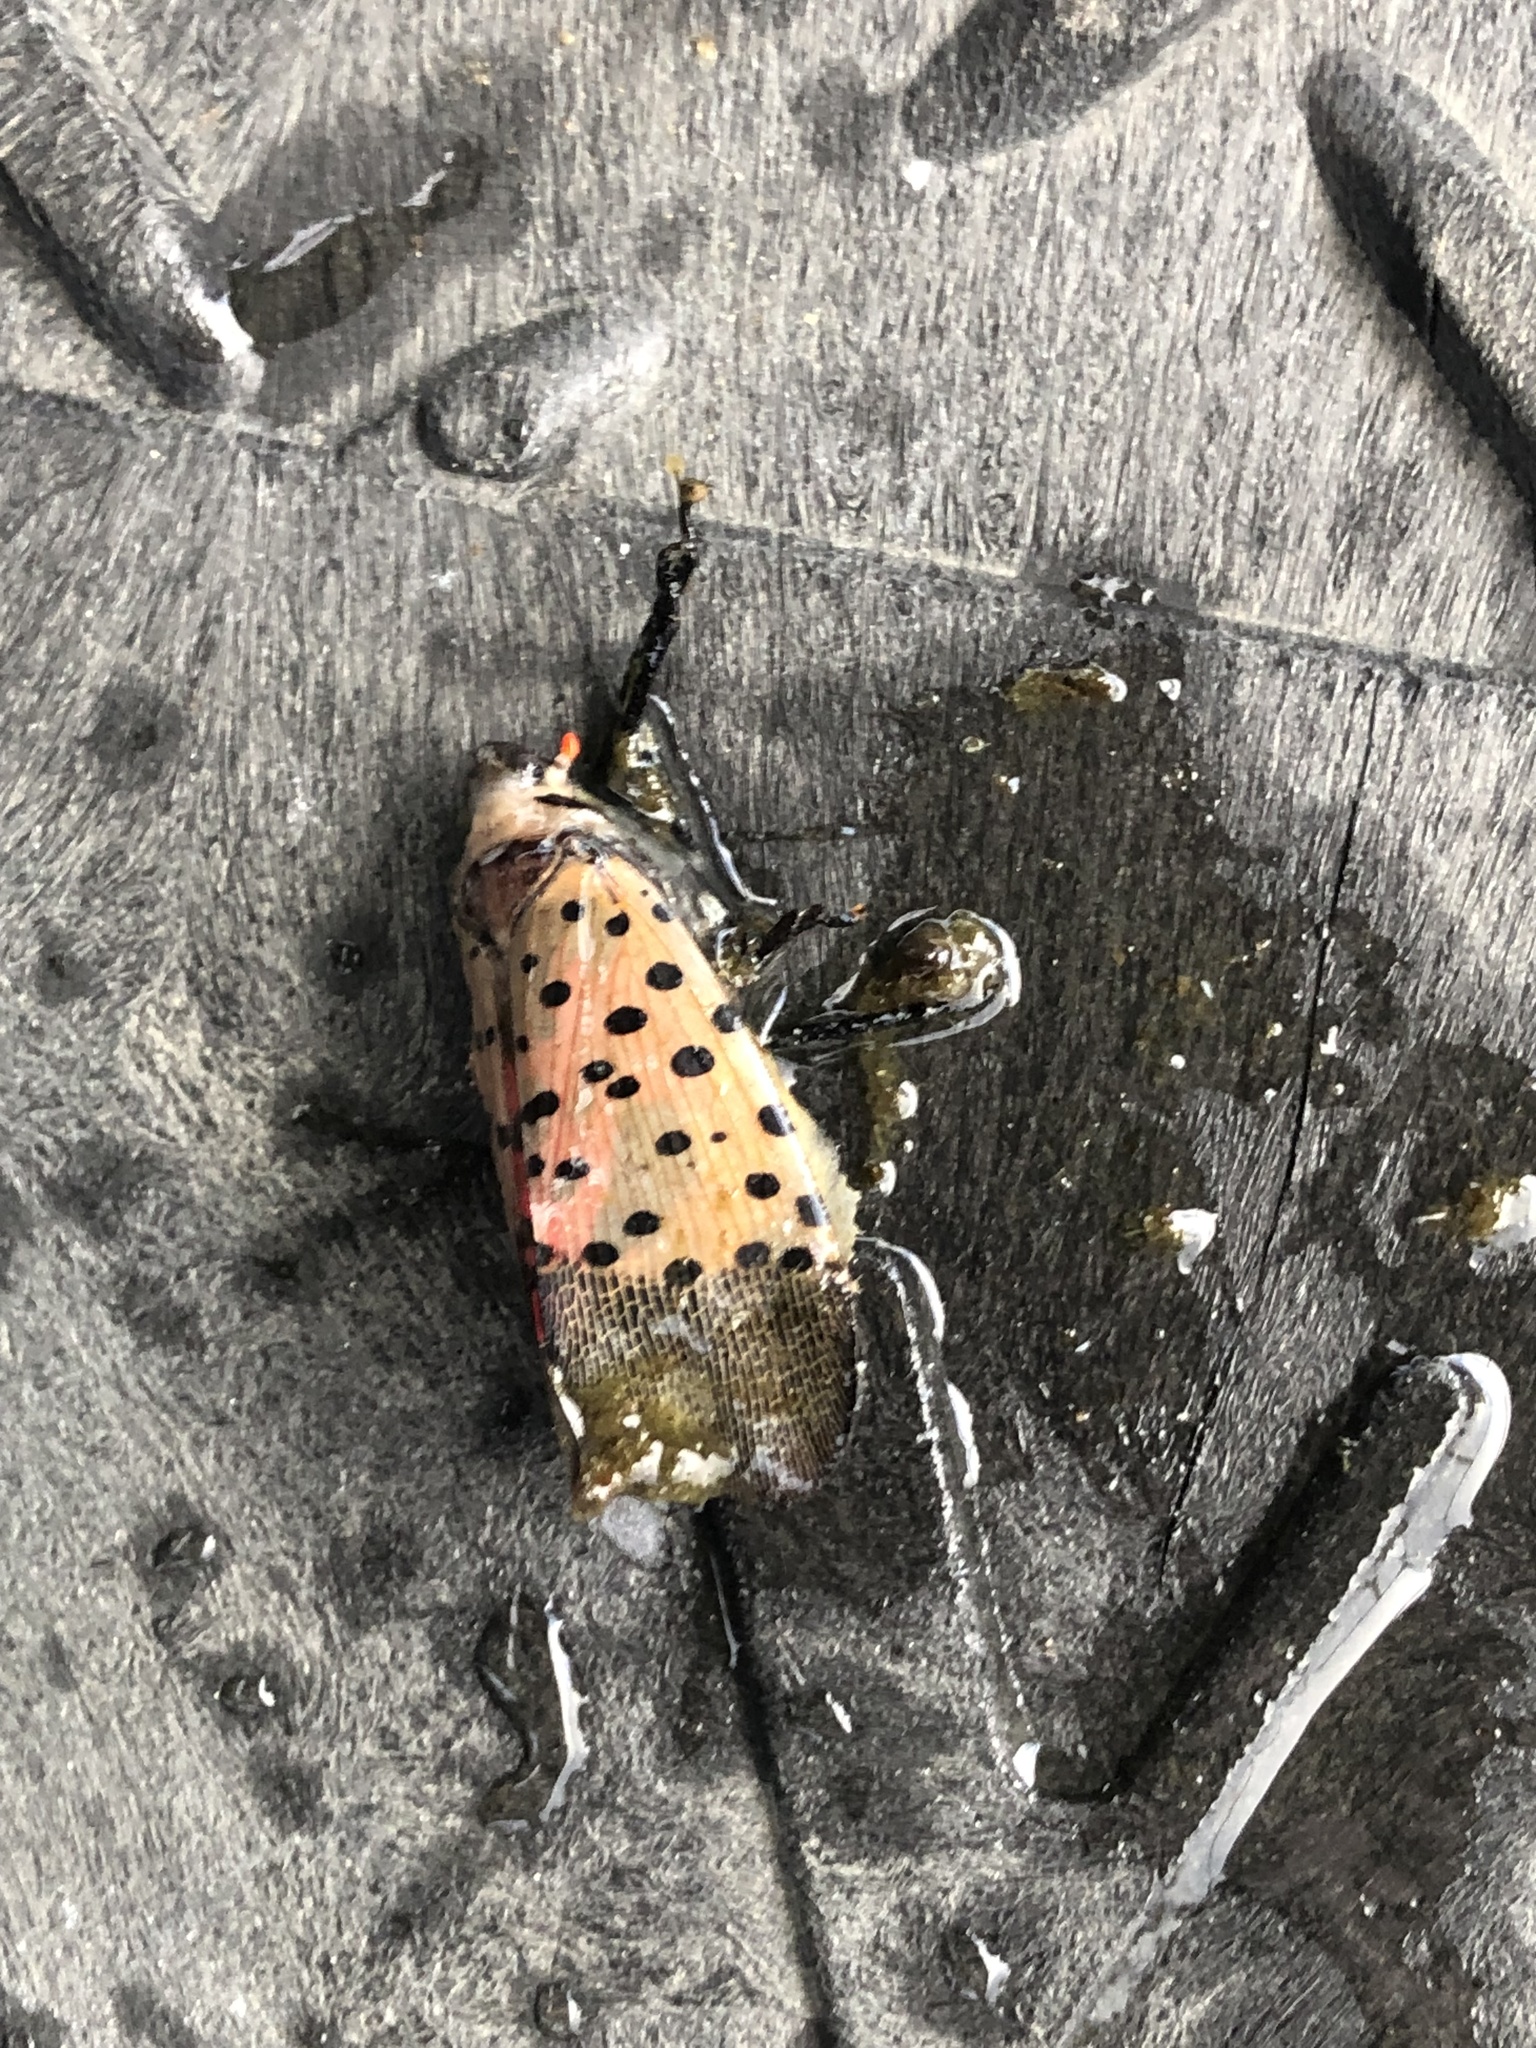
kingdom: Animalia
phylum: Arthropoda
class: Insecta
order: Hemiptera
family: Fulgoridae
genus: Lycorma
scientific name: Lycorma delicatula
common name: Spotted lanternfly
